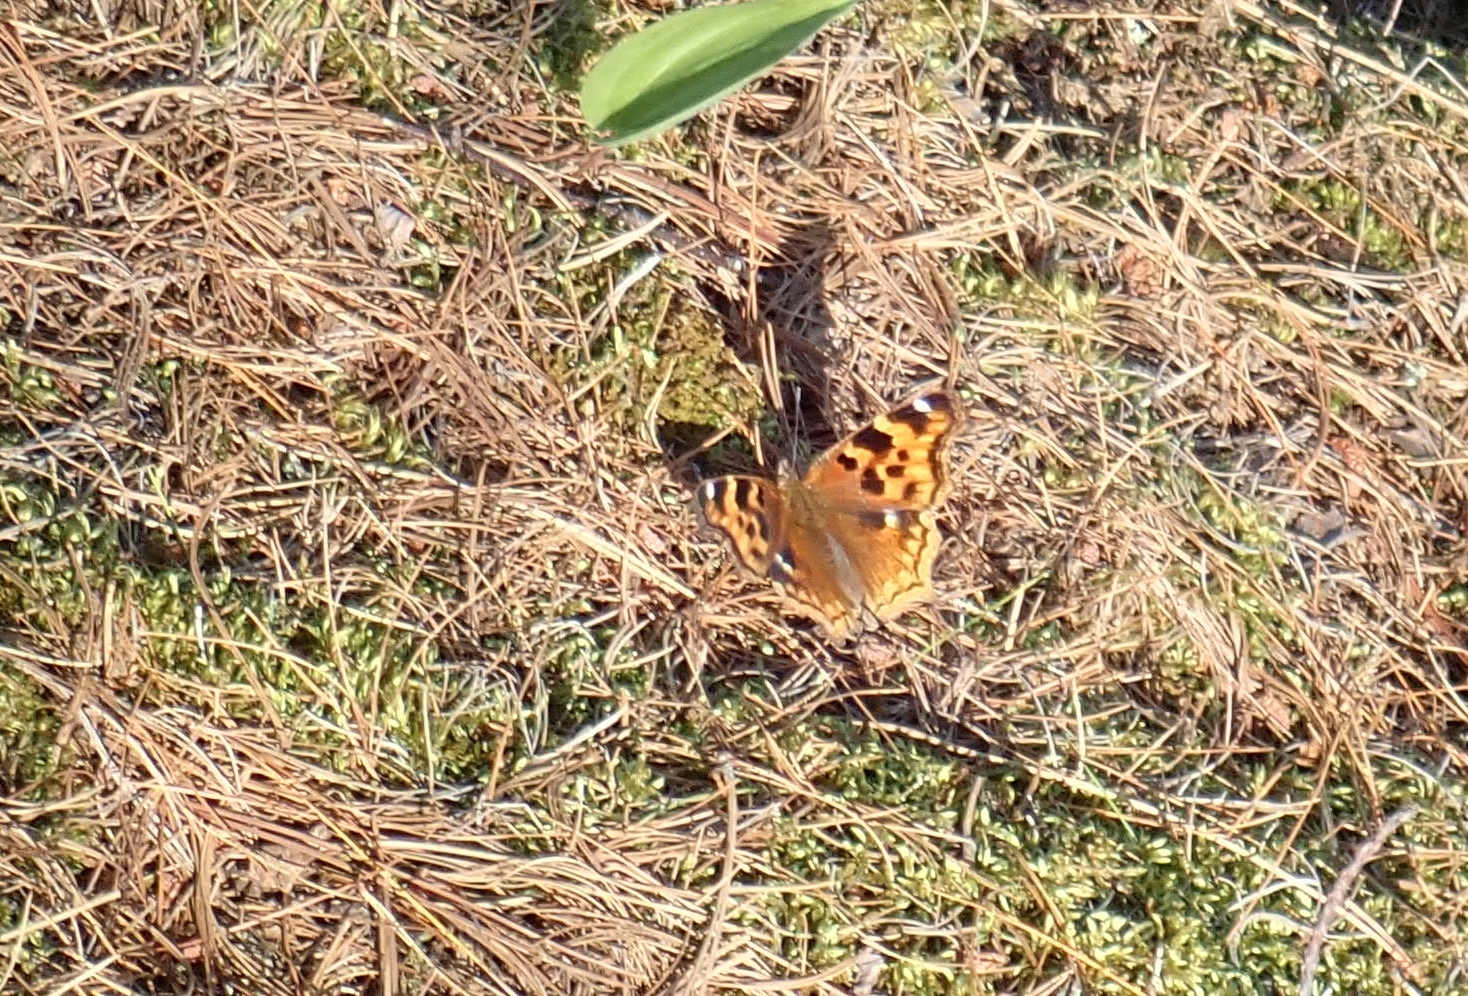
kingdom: Animalia
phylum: Arthropoda
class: Insecta
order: Lepidoptera
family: Nymphalidae
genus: Polygonia
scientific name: Polygonia vaualbum
